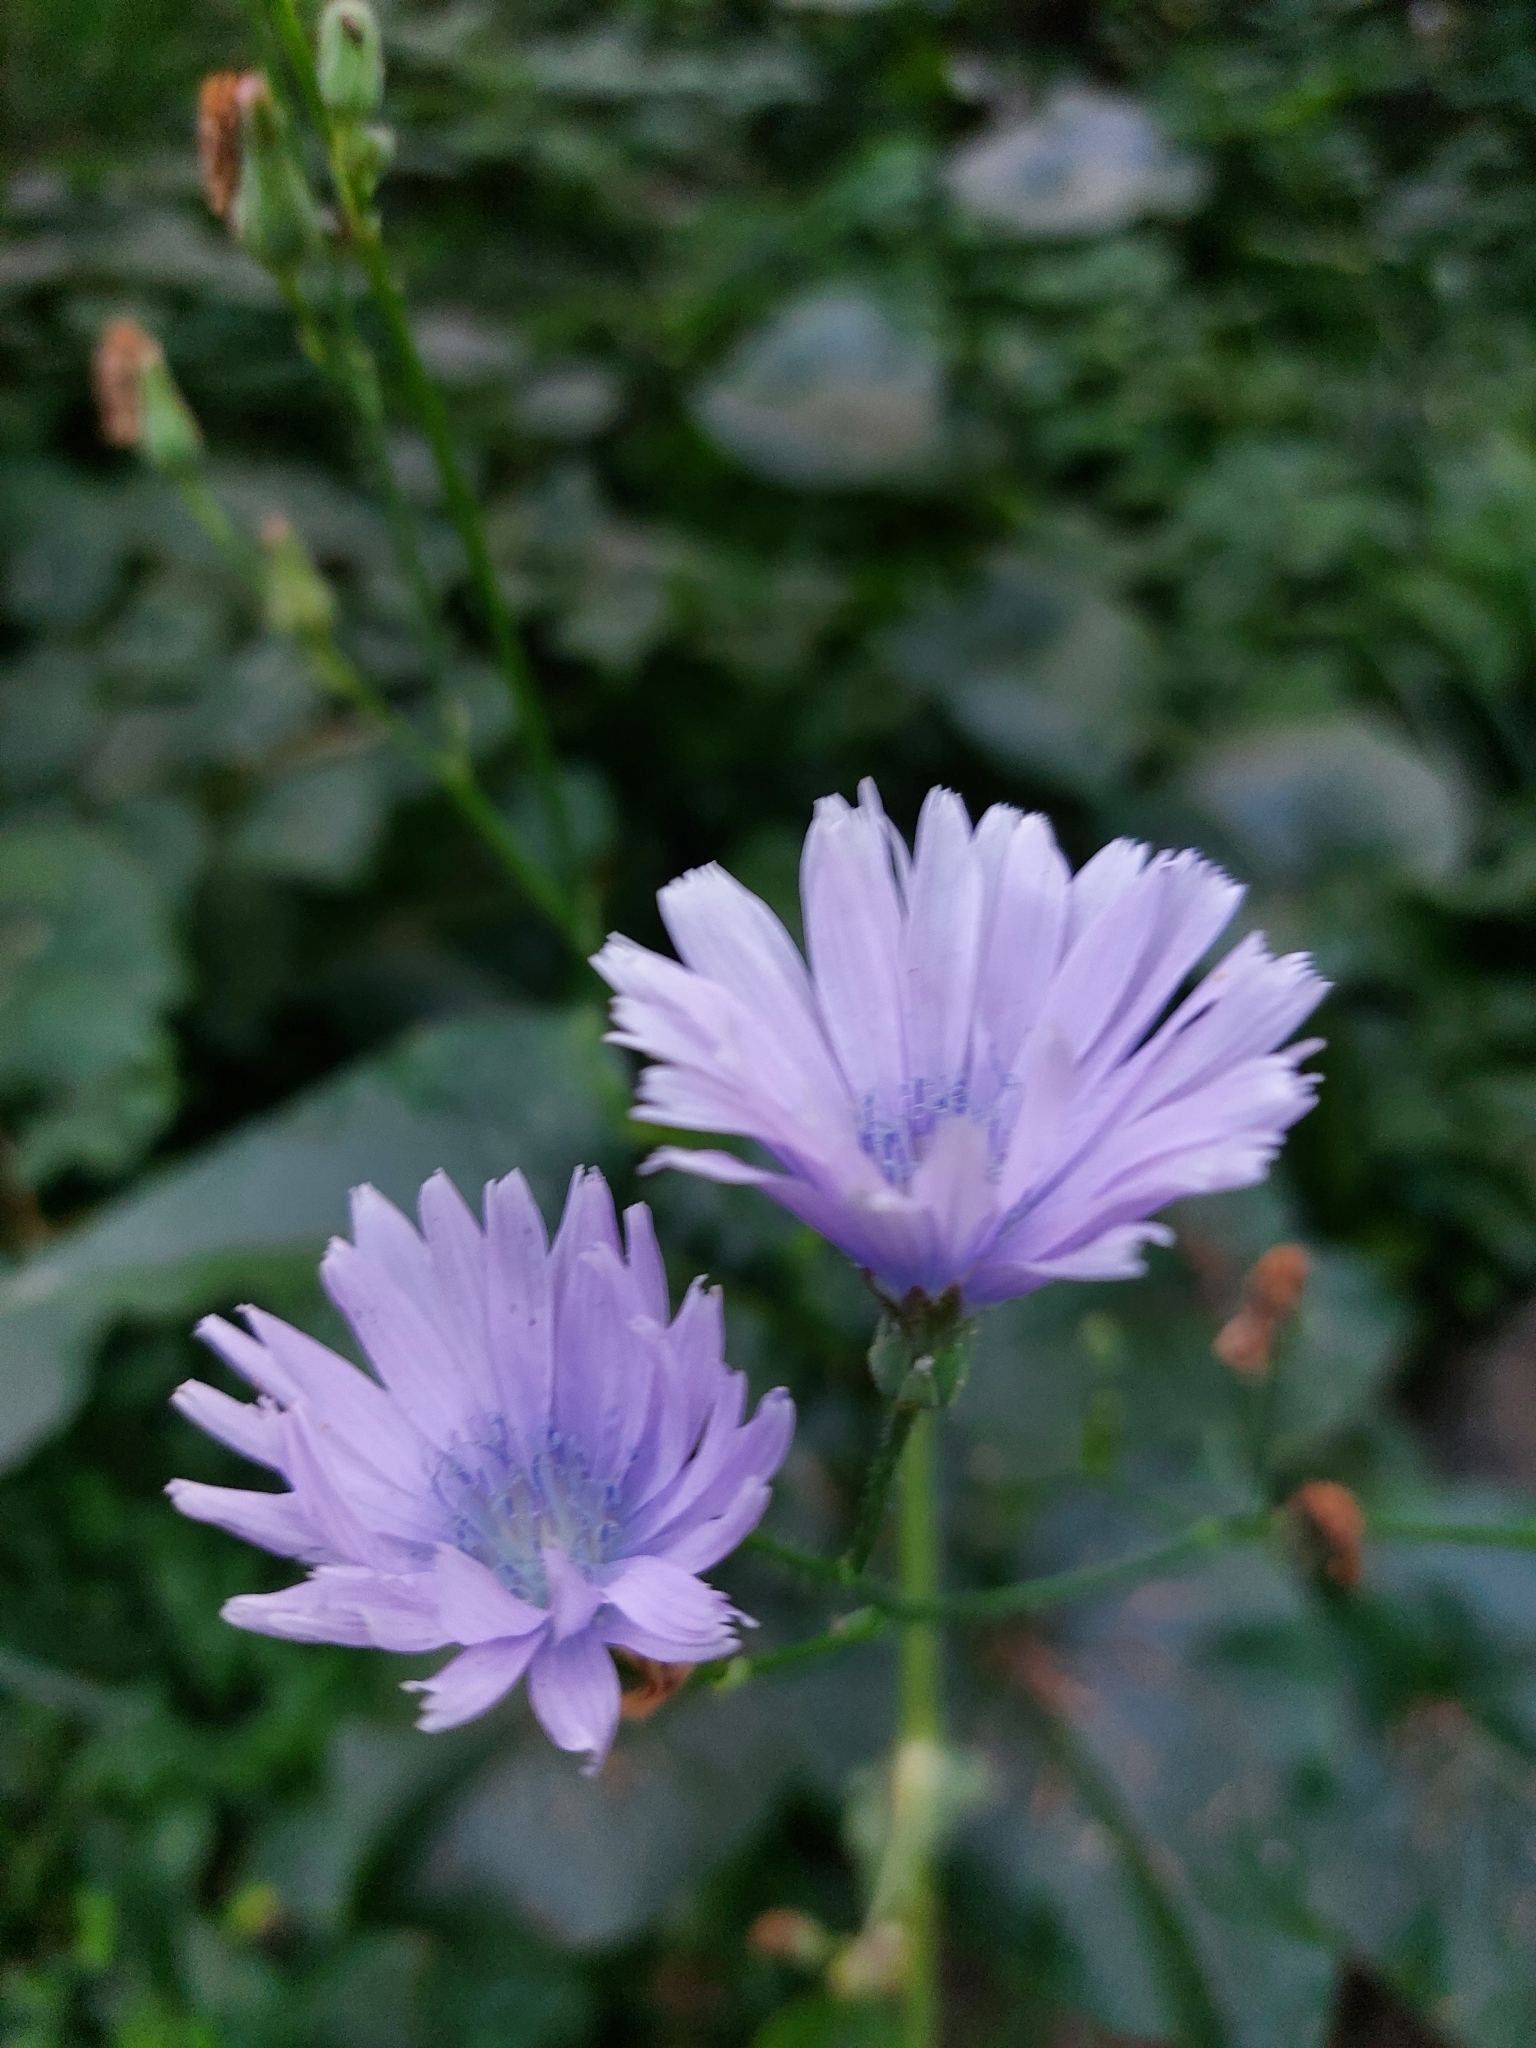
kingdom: Plantae
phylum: Tracheophyta
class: Magnoliopsida
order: Asterales
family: Asteraceae
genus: Lactuca
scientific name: Lactuca macrophylla
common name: Common blue-sow-thistle
